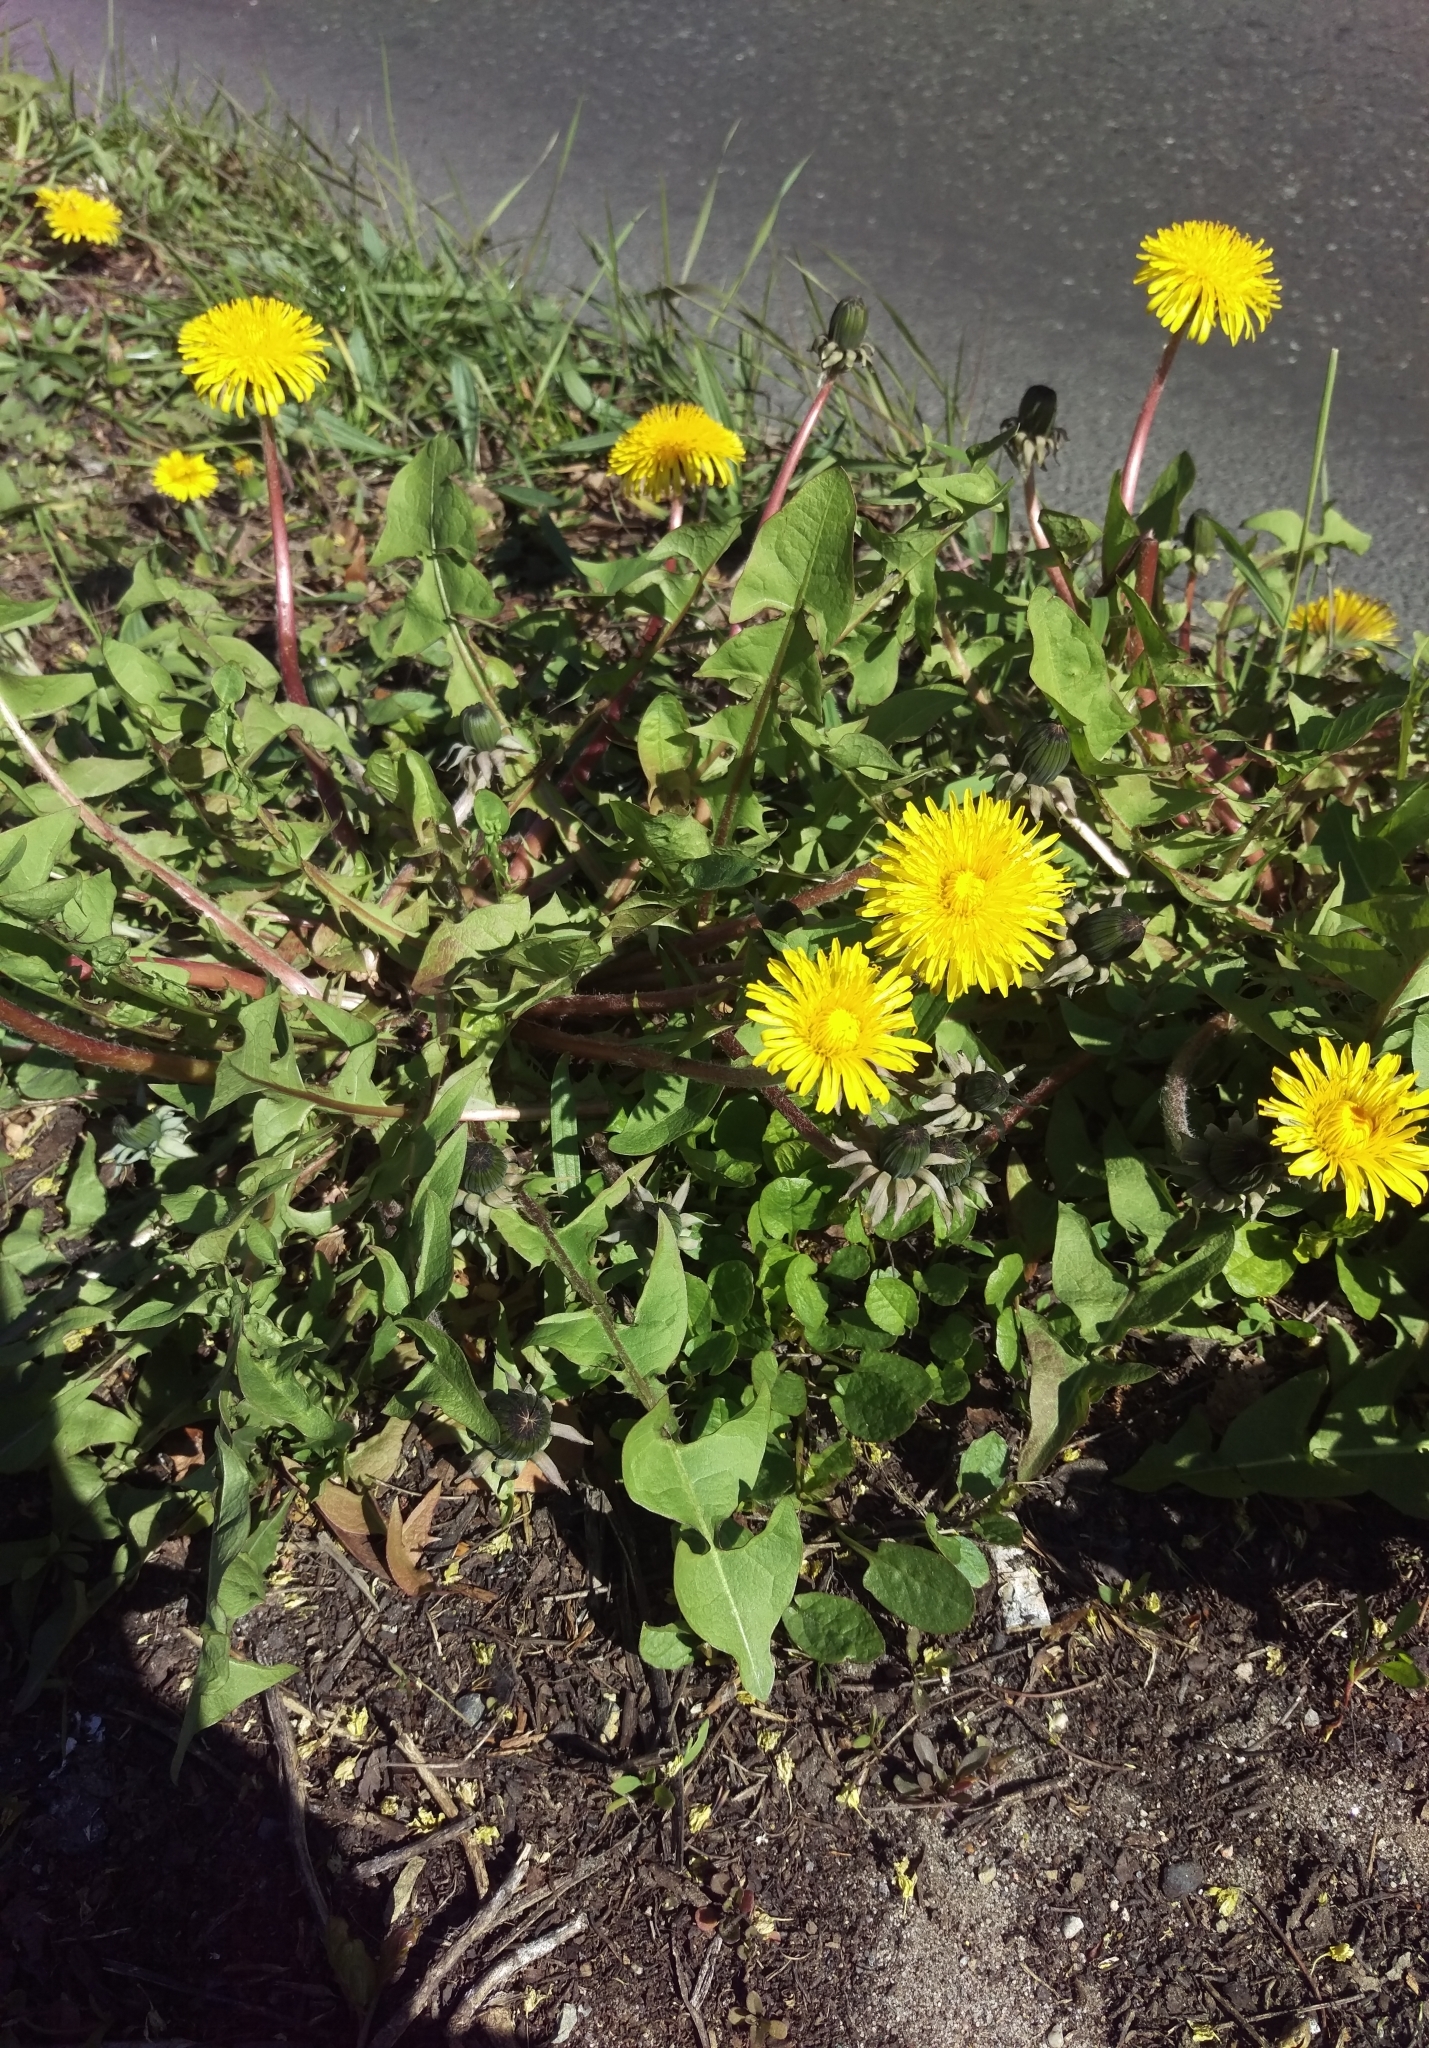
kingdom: Plantae
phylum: Tracheophyta
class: Magnoliopsida
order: Asterales
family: Asteraceae
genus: Taraxacum
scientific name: Taraxacum
